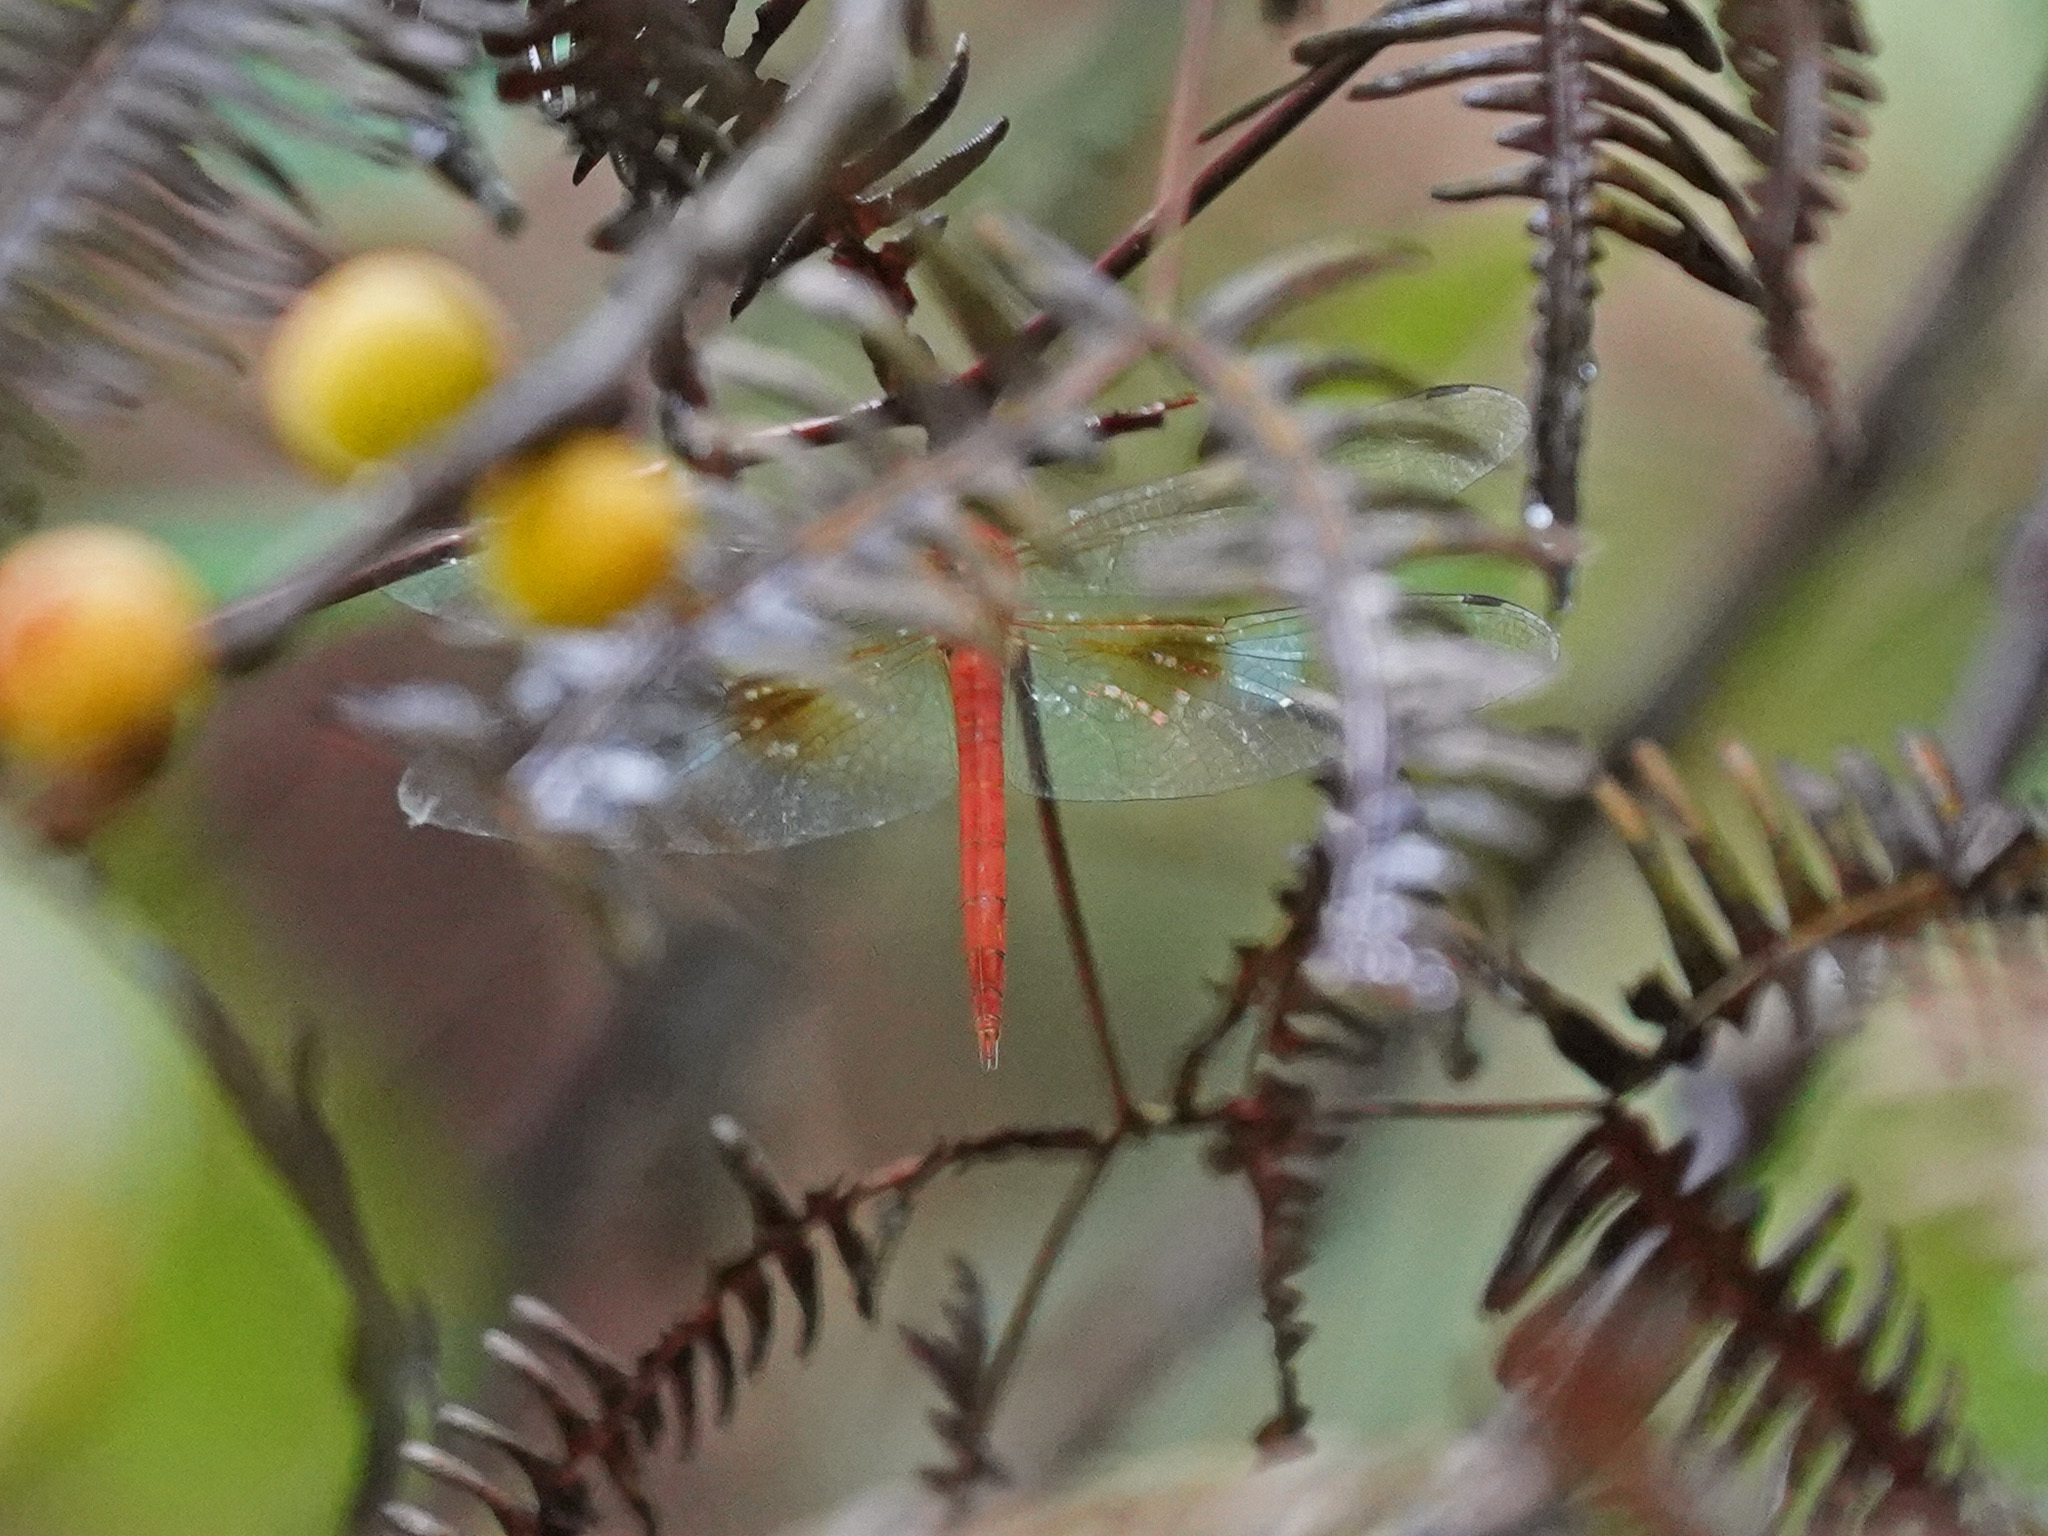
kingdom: Animalia
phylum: Arthropoda
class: Insecta
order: Odonata
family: Libellulidae
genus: Tholymis
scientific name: Tholymis tillarga
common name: Coral-tailed cloud wing
